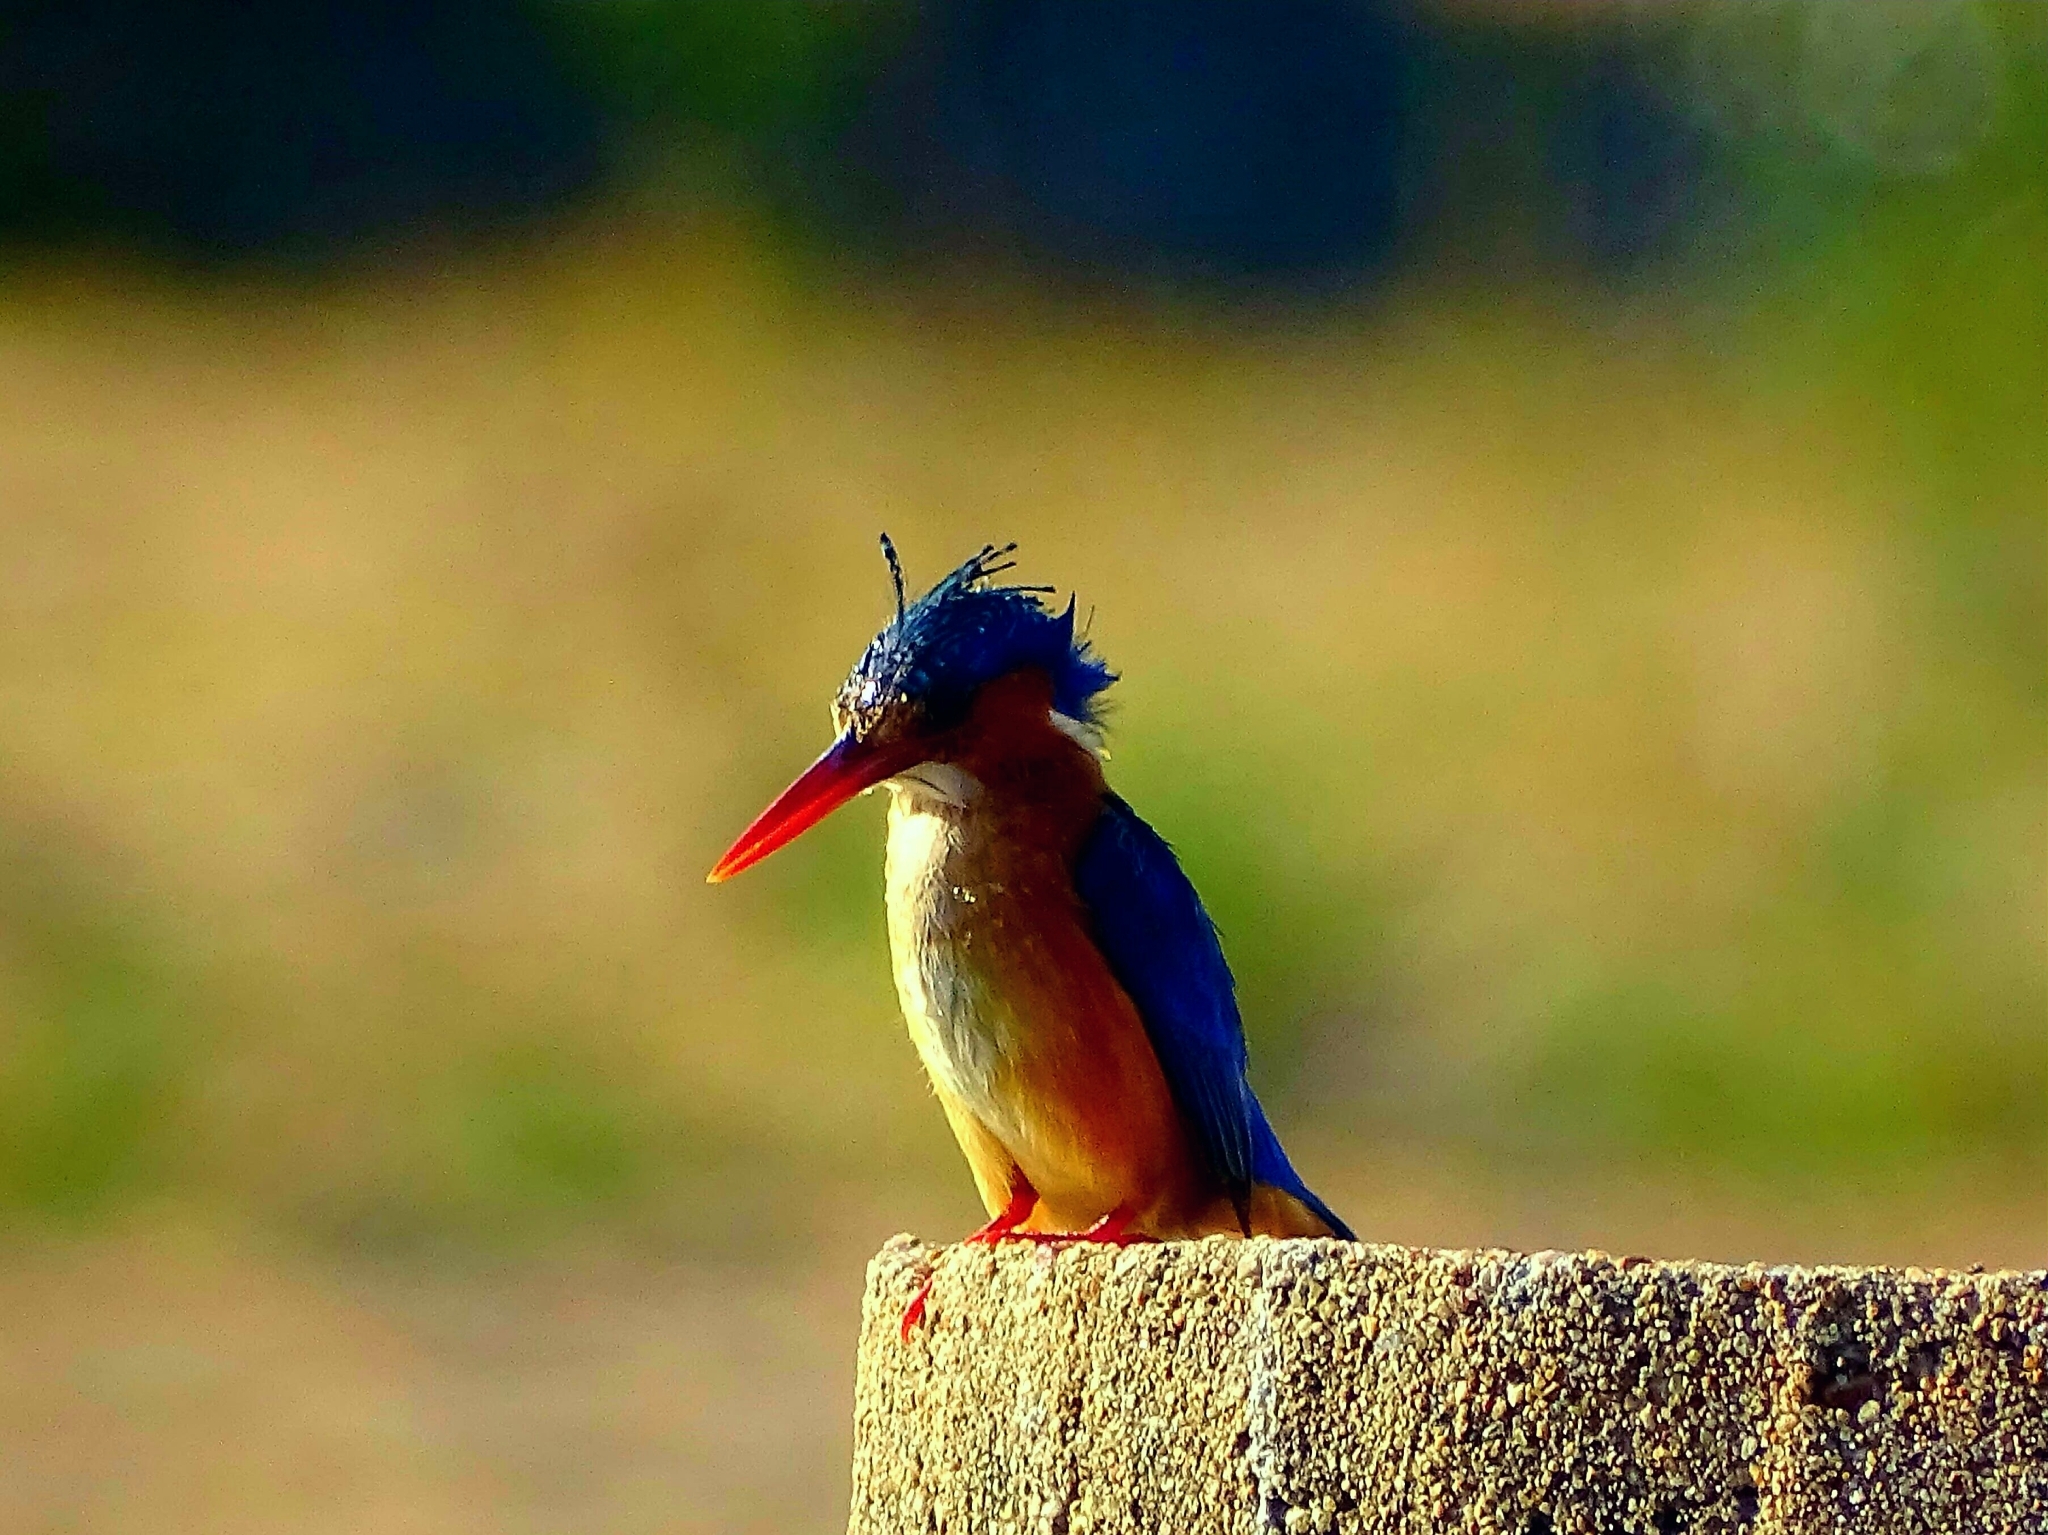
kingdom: Animalia
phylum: Chordata
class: Aves
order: Coraciiformes
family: Alcedinidae
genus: Corythornis
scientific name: Corythornis cristatus
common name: Malachite kingfisher
